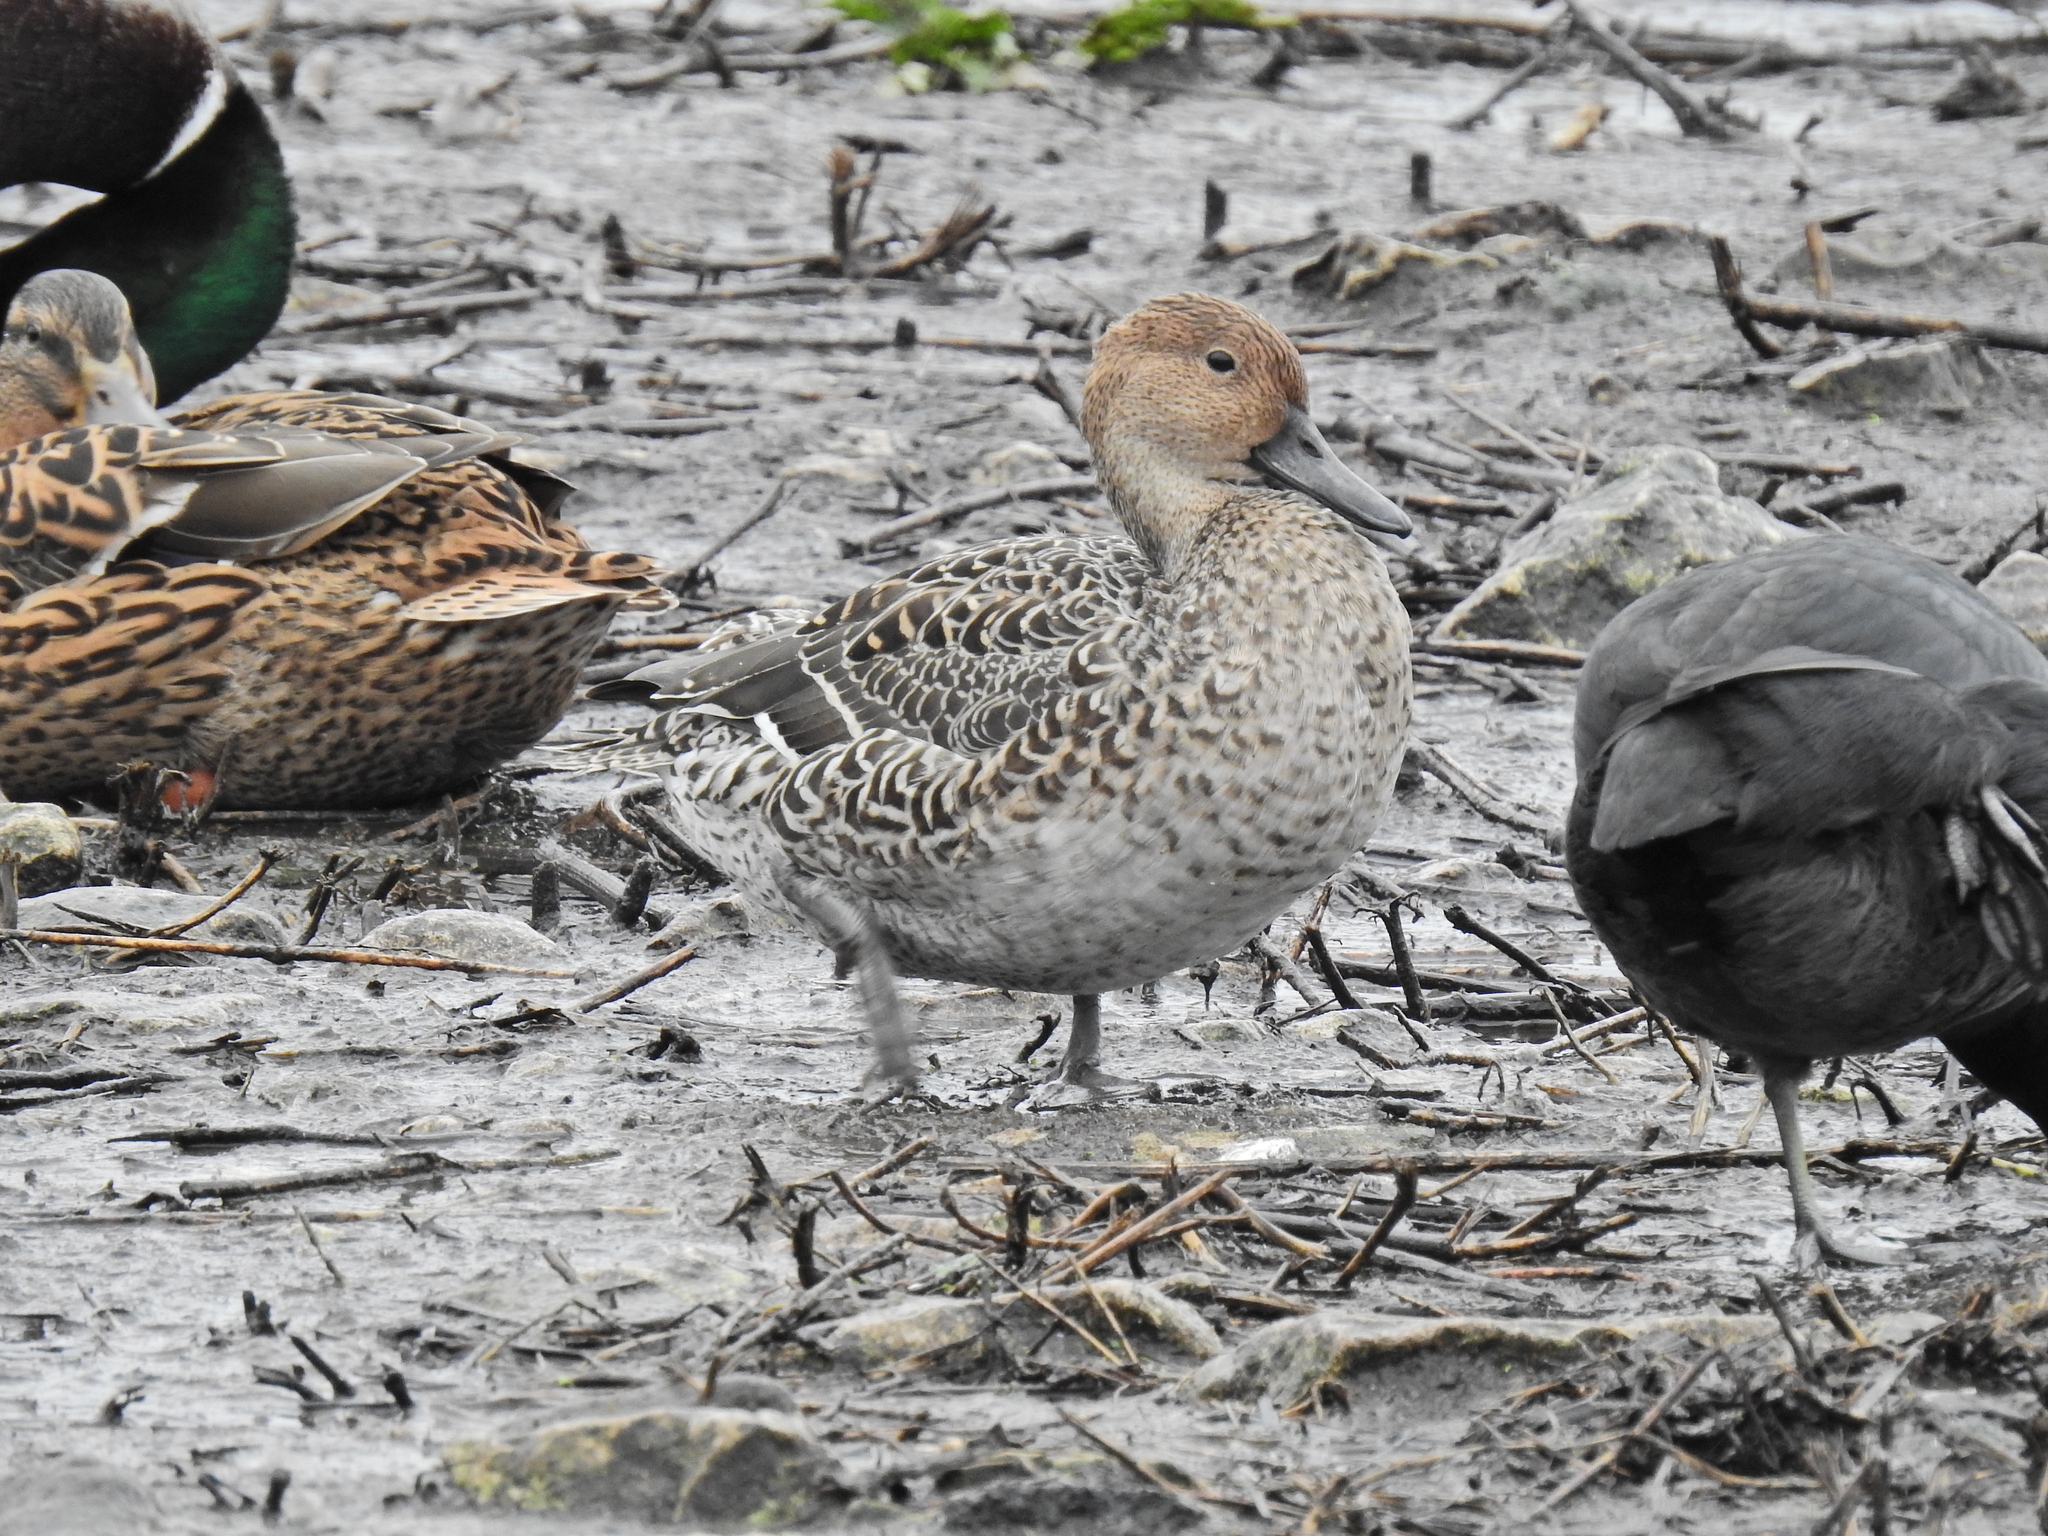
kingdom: Animalia
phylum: Chordata
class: Aves
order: Anseriformes
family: Anatidae
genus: Anas
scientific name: Anas acuta
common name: Northern pintail
